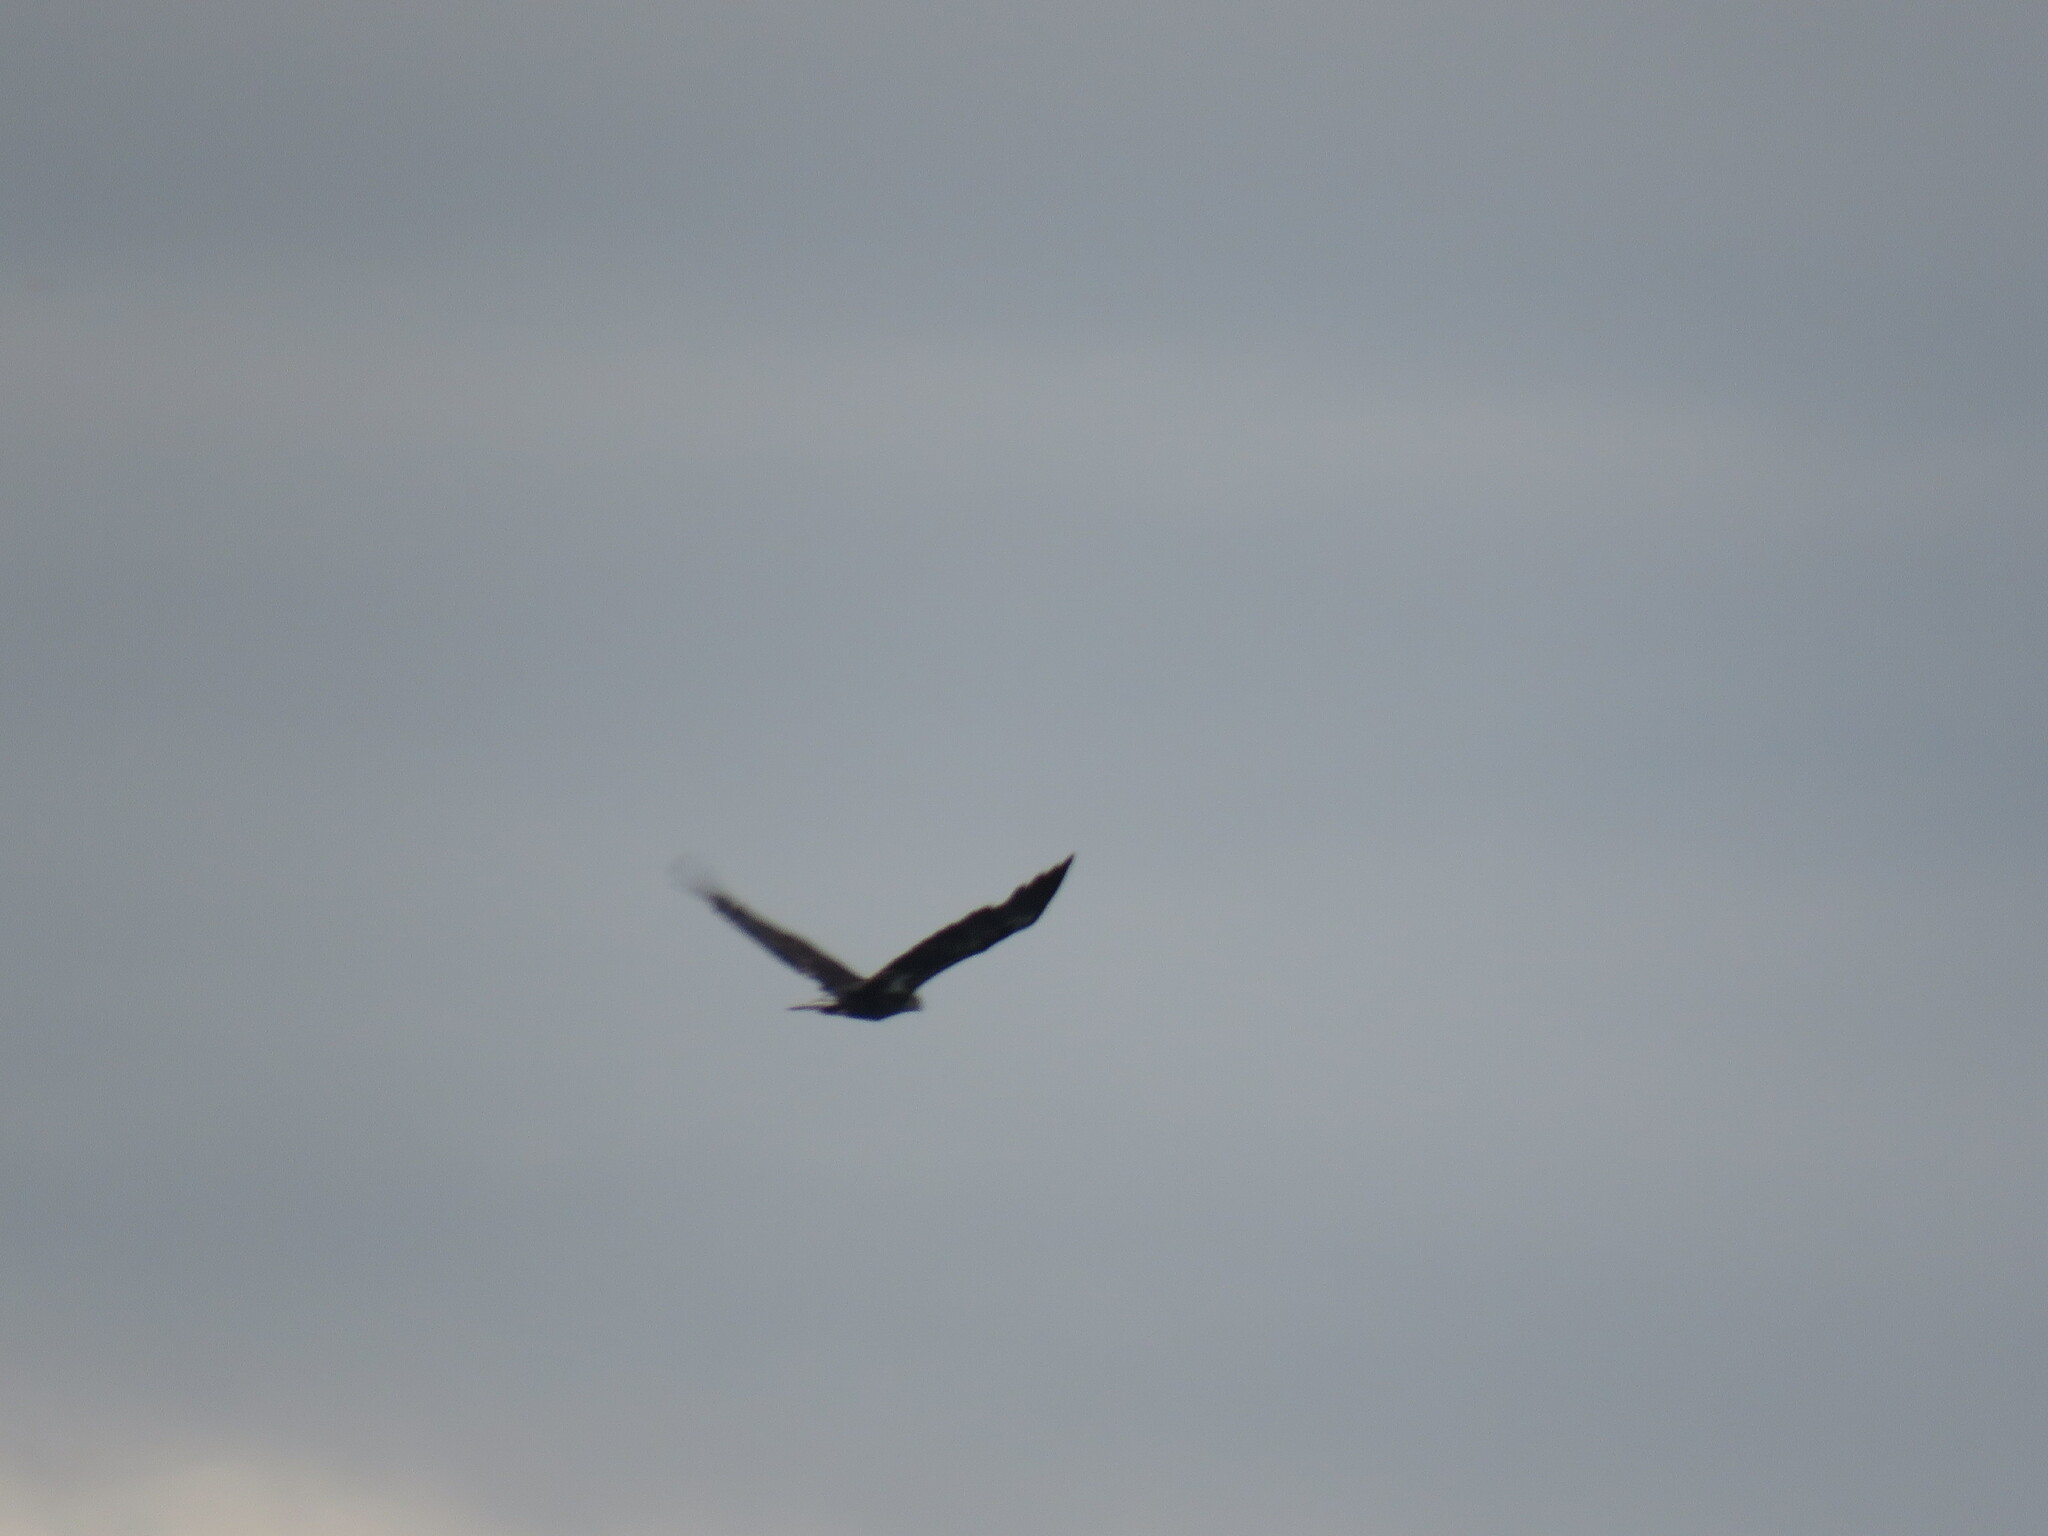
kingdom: Animalia
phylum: Chordata
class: Aves
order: Accipitriformes
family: Accipitridae
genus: Haliaeetus
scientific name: Haliaeetus leucocephalus
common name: Bald eagle
